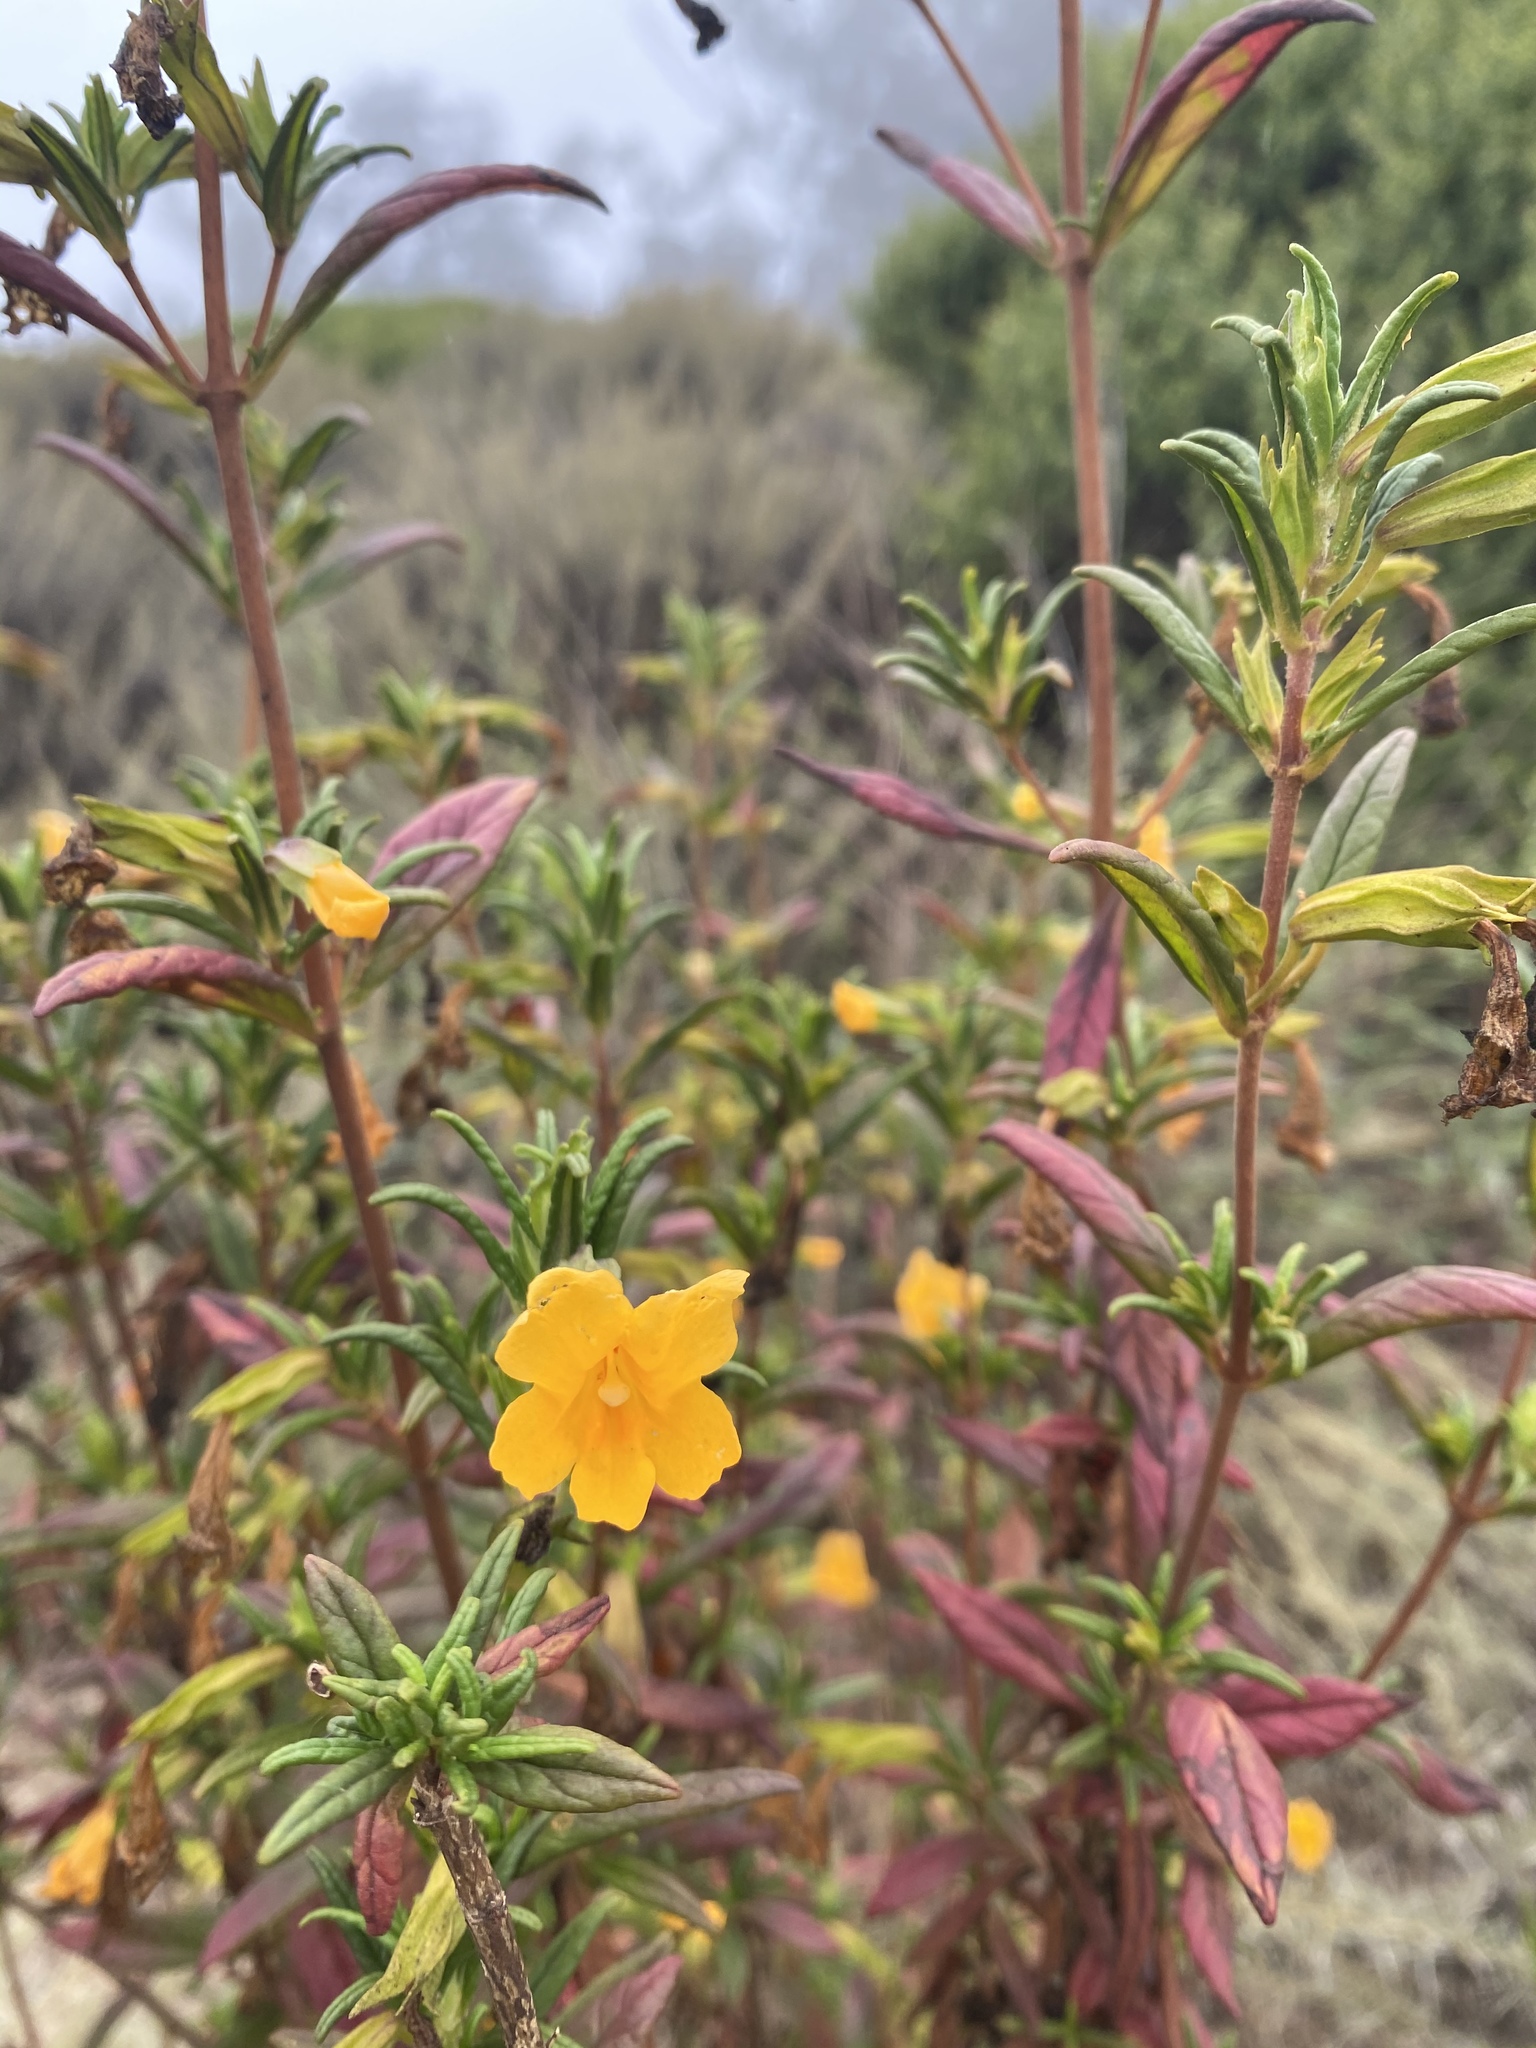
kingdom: Plantae
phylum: Tracheophyta
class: Magnoliopsida
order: Lamiales
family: Phrymaceae
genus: Diplacus
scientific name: Diplacus aurantiacus
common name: Bush monkey-flower
